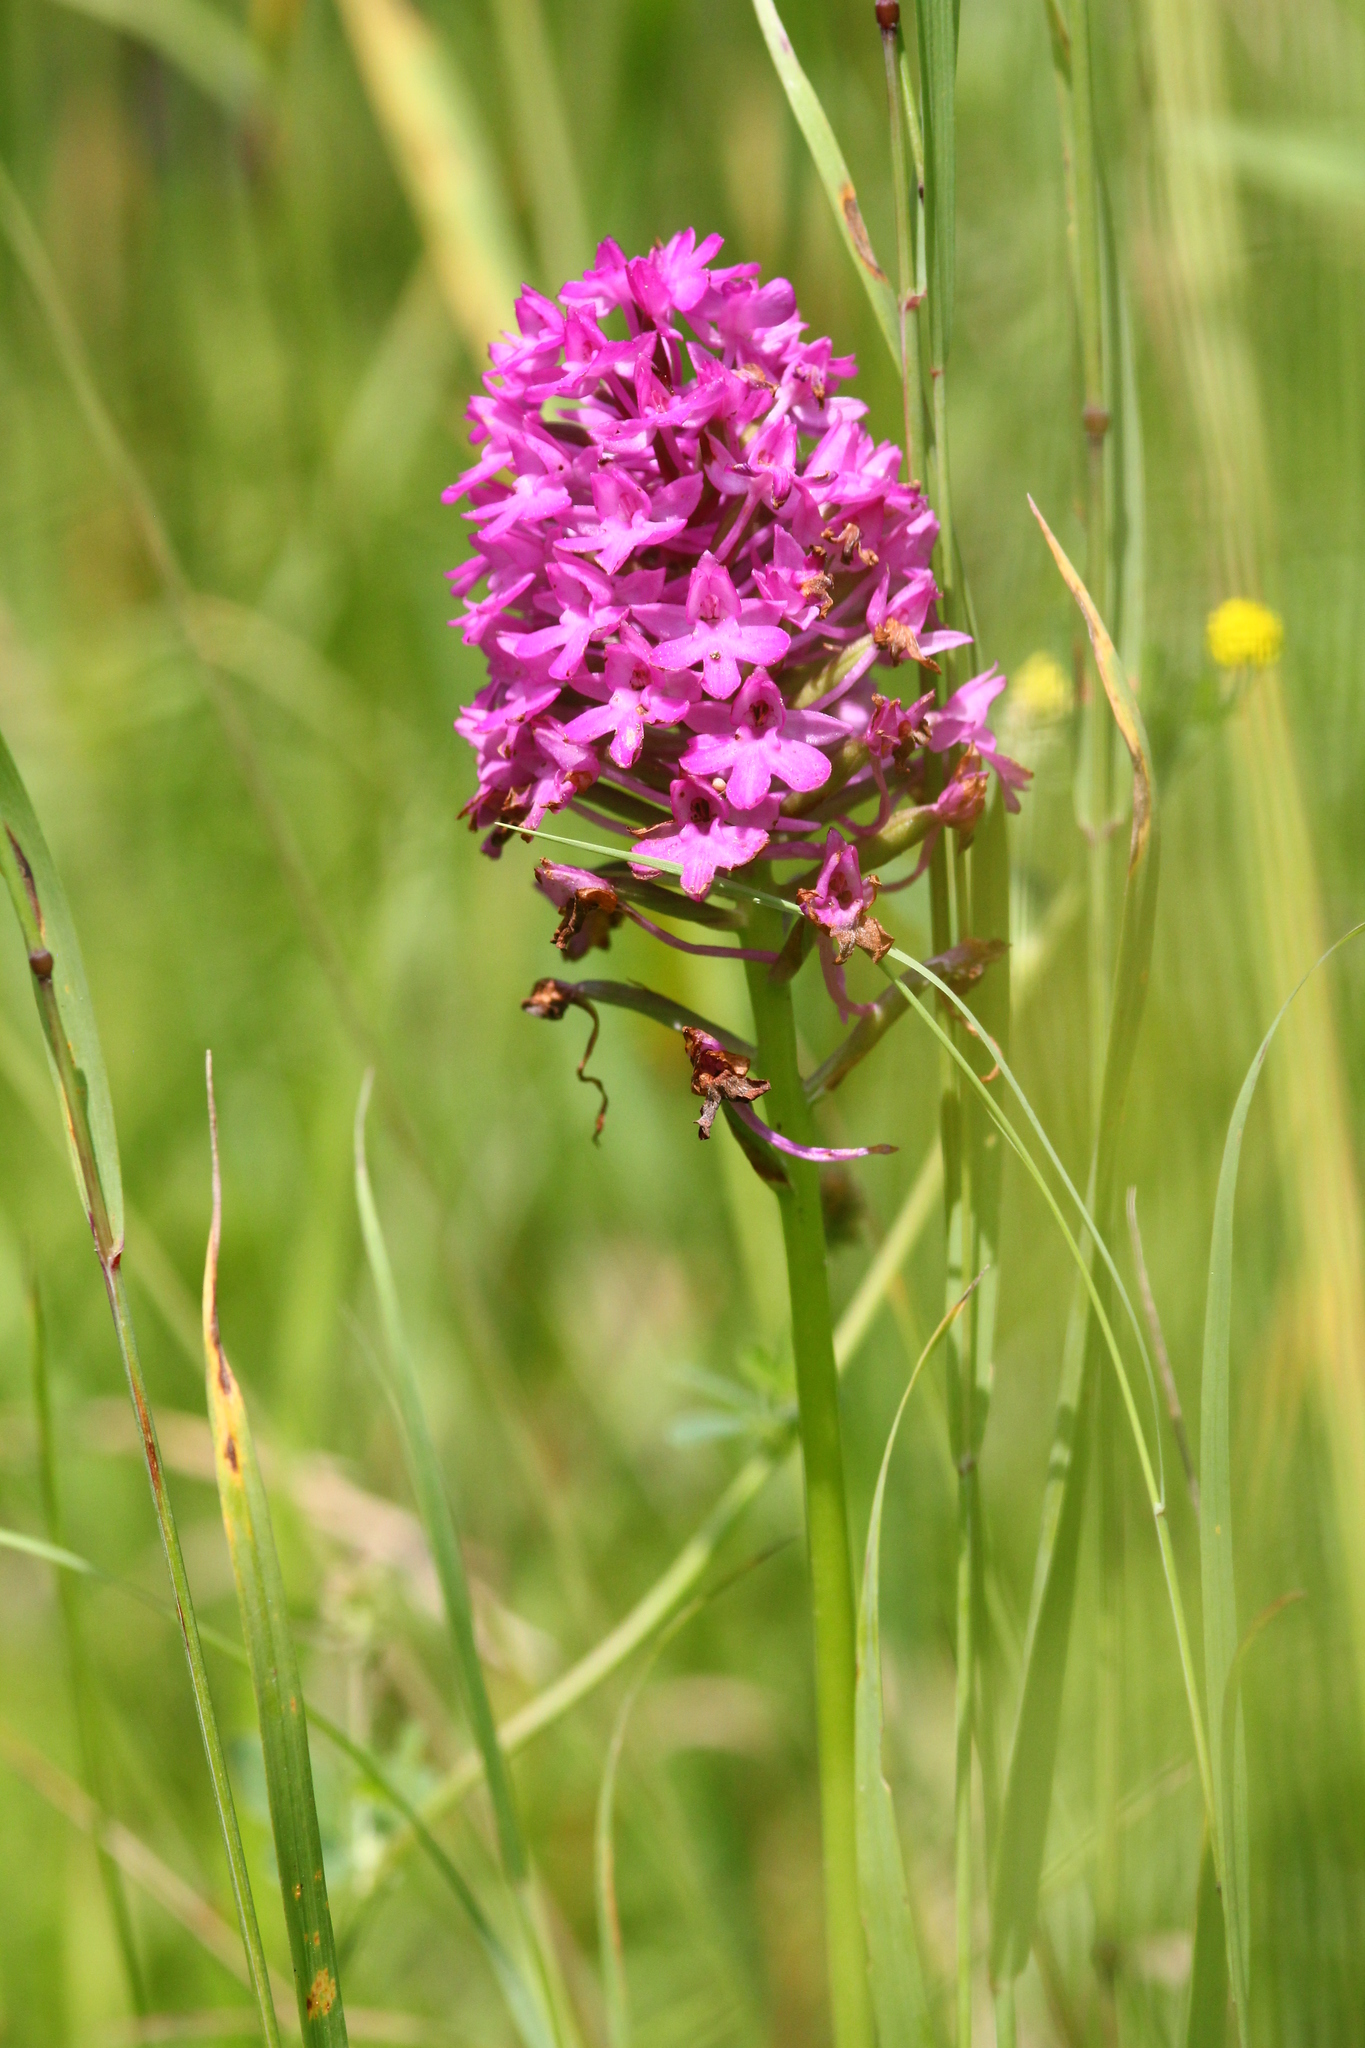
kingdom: Plantae
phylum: Tracheophyta
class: Liliopsida
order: Asparagales
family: Orchidaceae
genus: Anacamptis
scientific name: Anacamptis pyramidalis
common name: Pyramidal orchid
